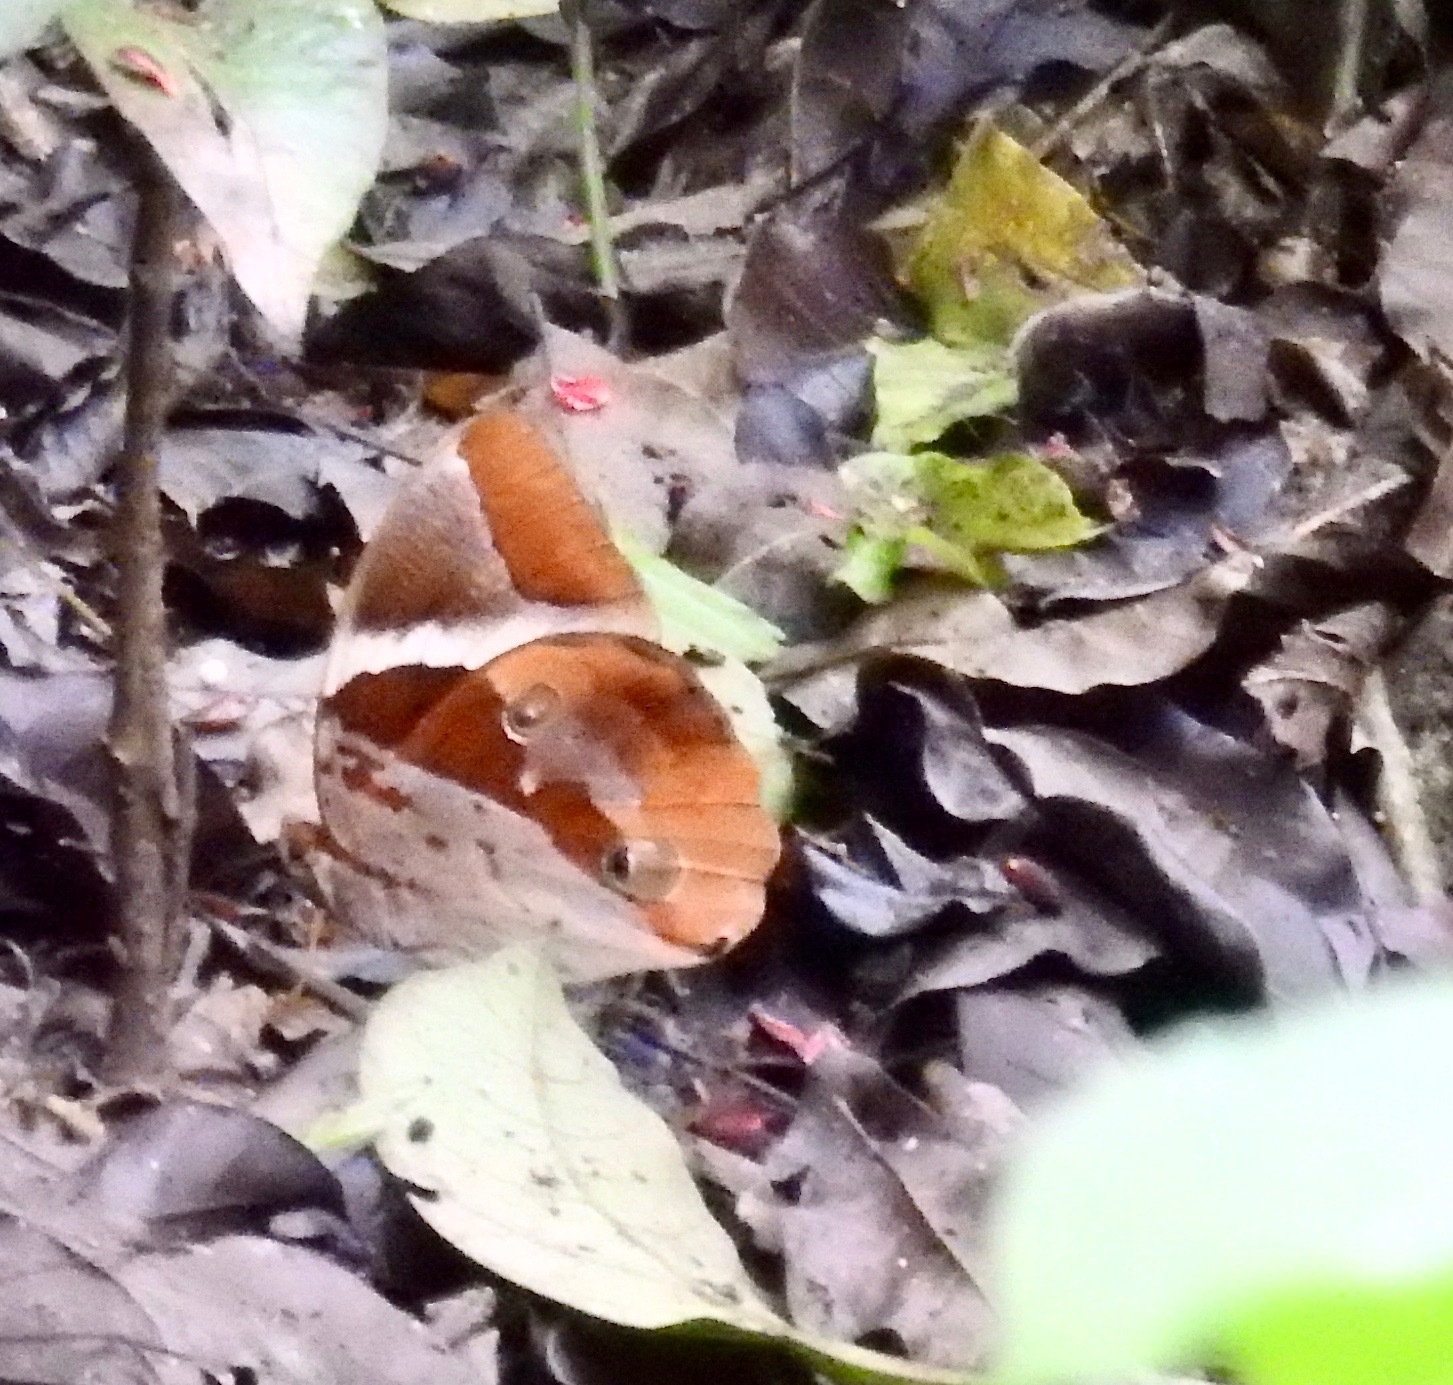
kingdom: Animalia
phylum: Arthropoda
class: Insecta
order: Lepidoptera
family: Nymphalidae
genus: Thauria
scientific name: Thauria lathy
